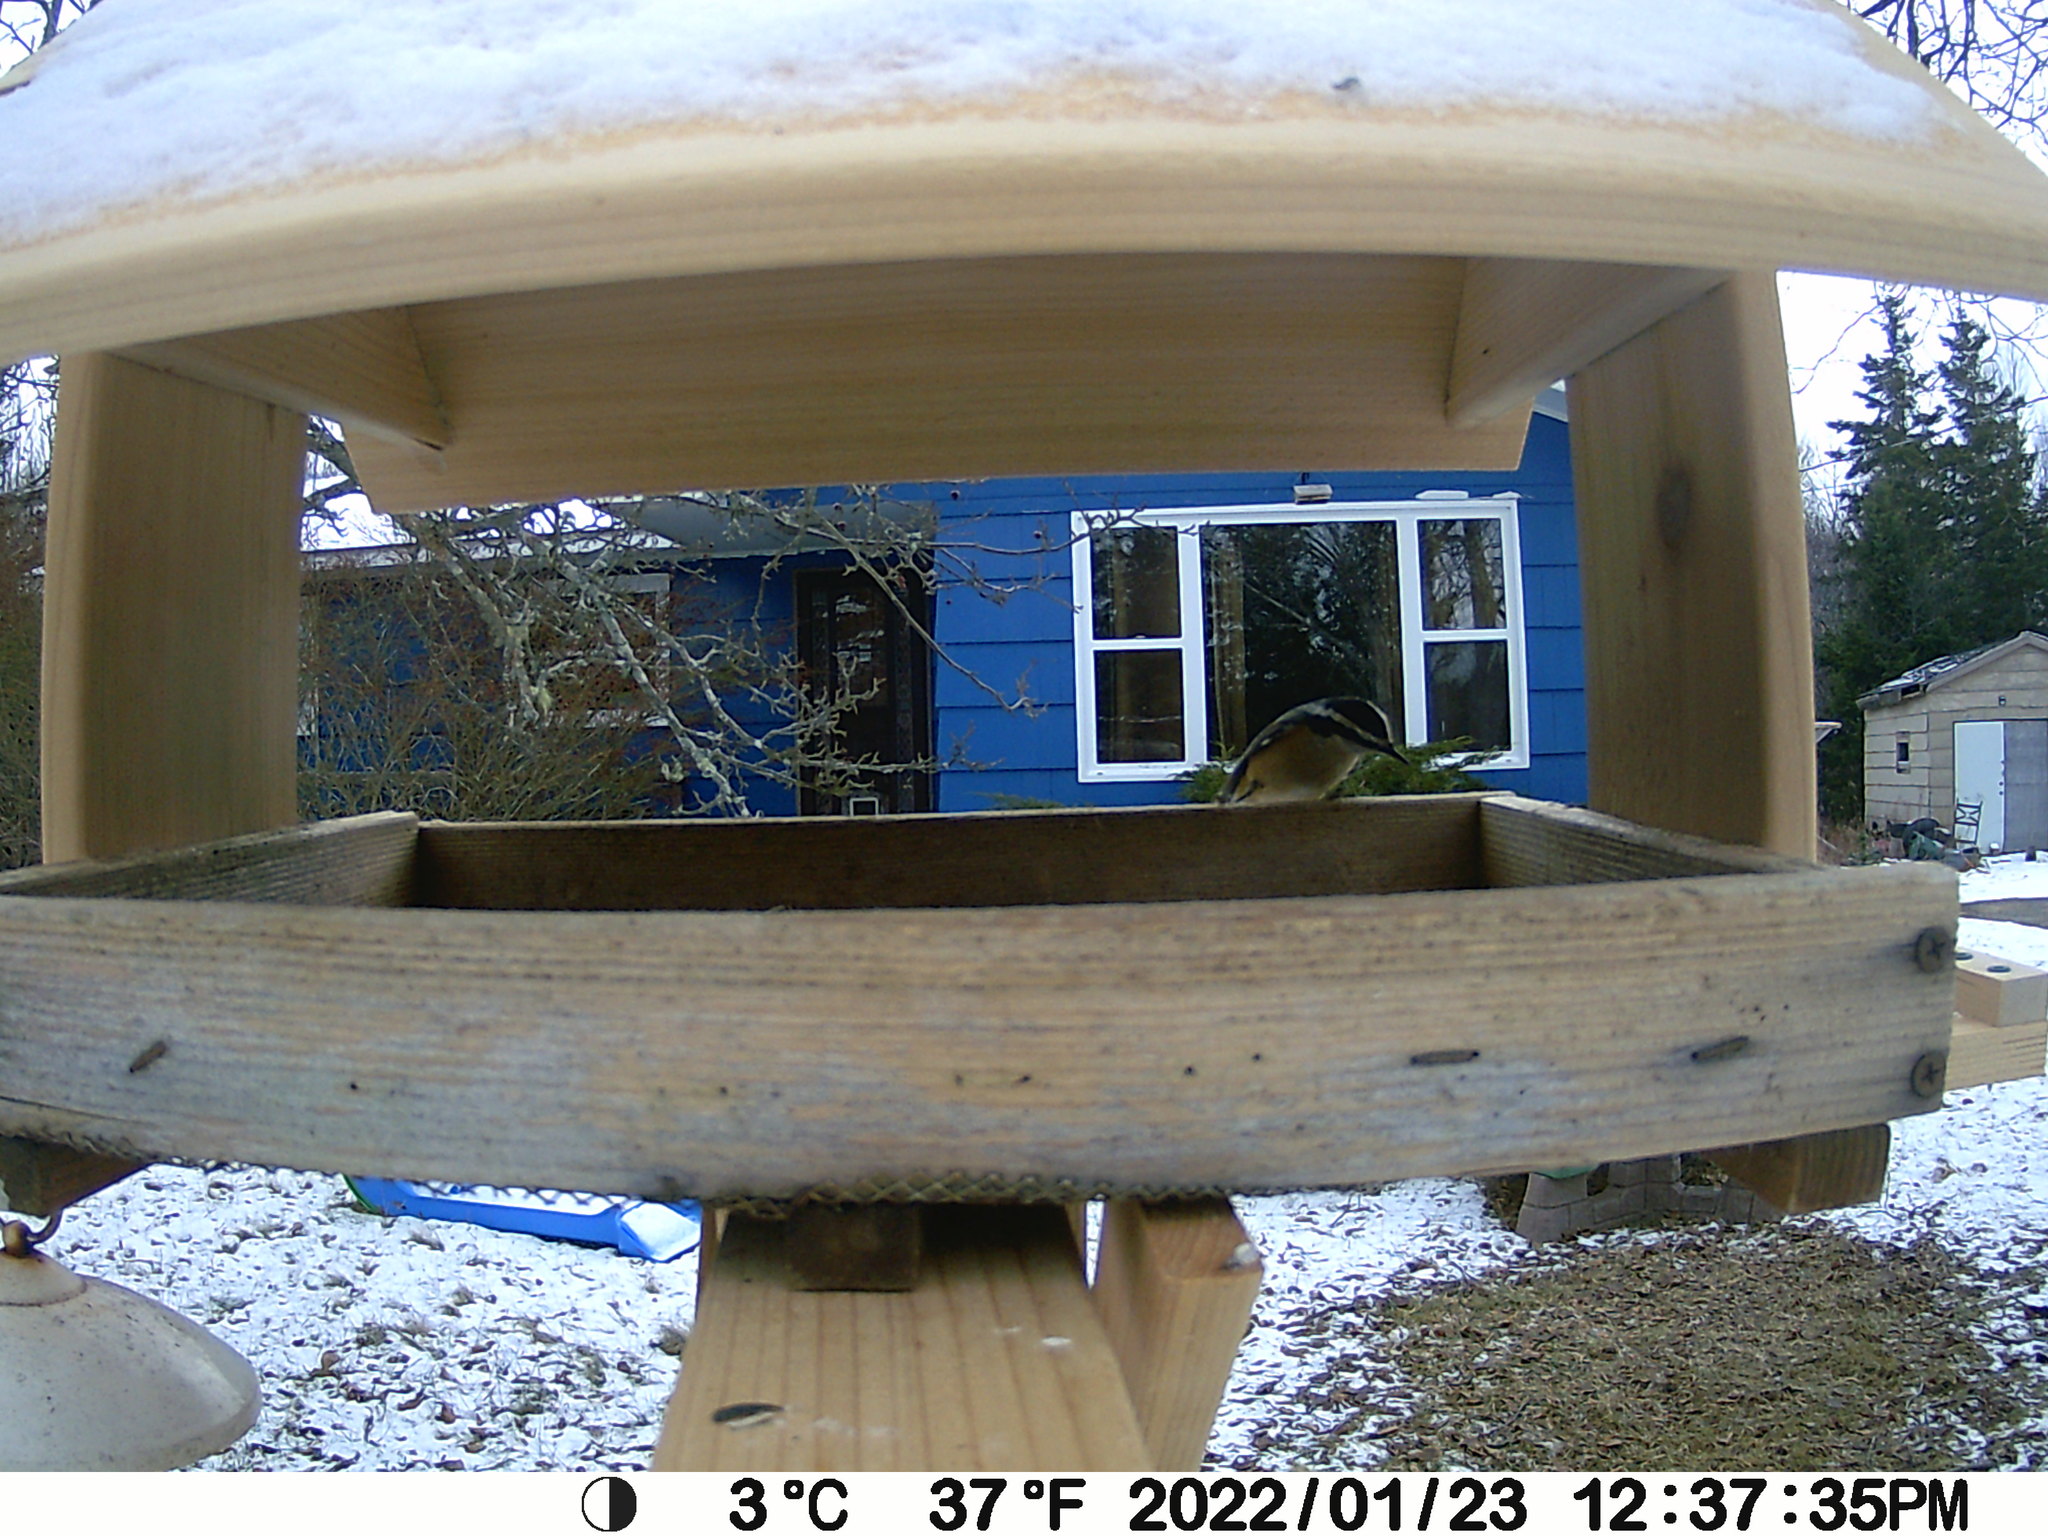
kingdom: Animalia
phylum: Chordata
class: Aves
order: Passeriformes
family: Sittidae
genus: Sitta
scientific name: Sitta canadensis
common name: Red-breasted nuthatch
